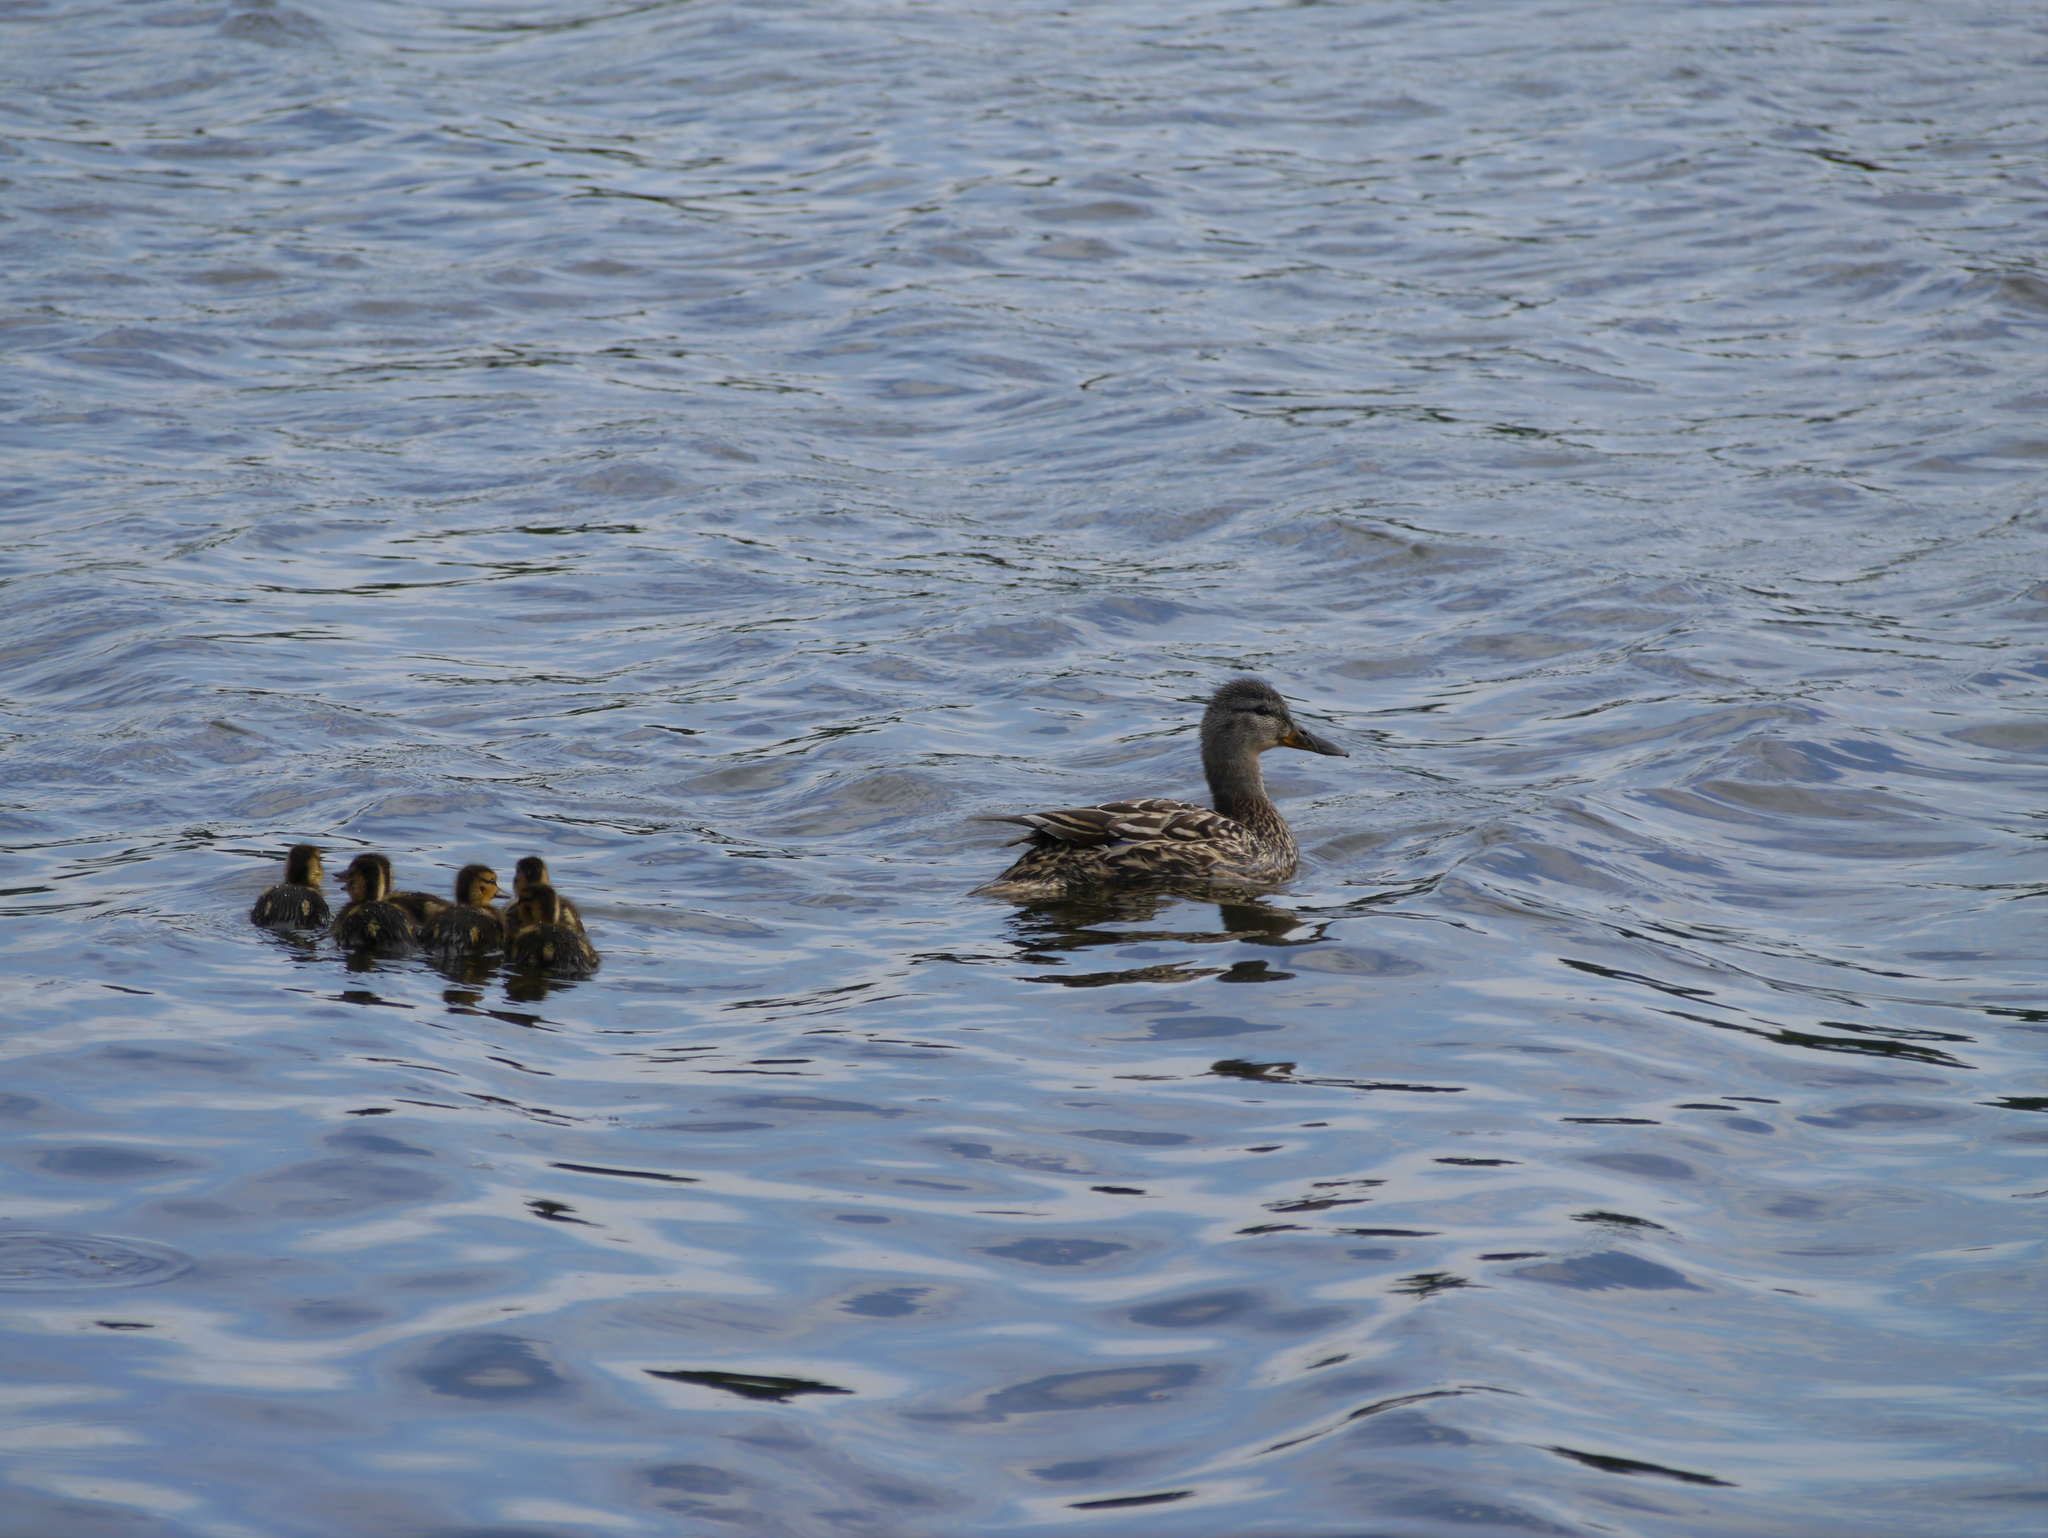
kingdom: Animalia
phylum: Chordata
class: Aves
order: Anseriformes
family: Anatidae
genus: Anas
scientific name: Anas platyrhynchos
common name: Mallard
